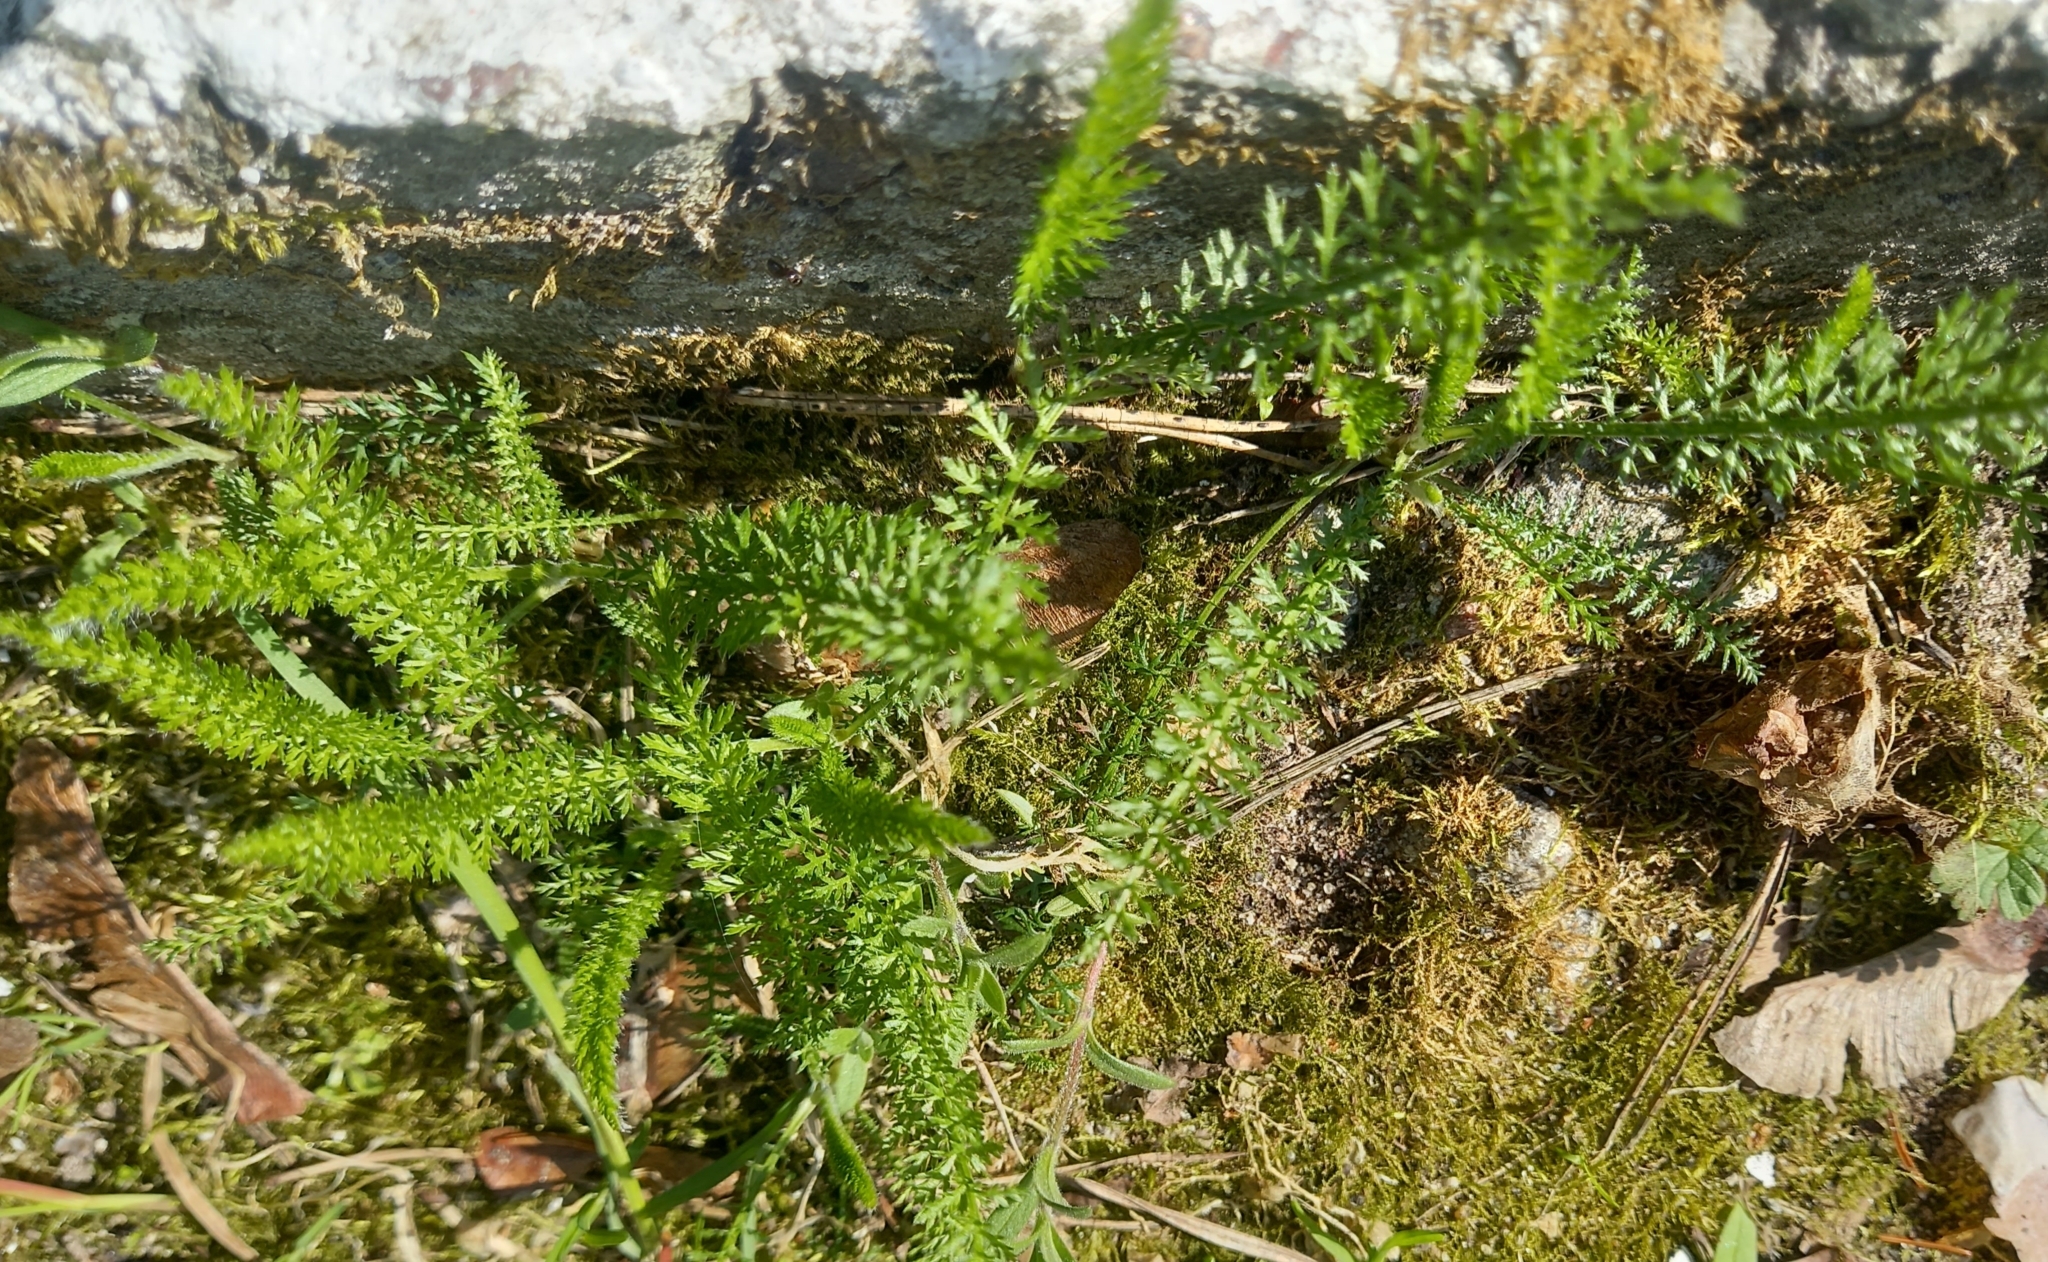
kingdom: Plantae
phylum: Tracheophyta
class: Magnoliopsida
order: Asterales
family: Asteraceae
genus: Achillea
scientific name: Achillea millefolium
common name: Yarrow
